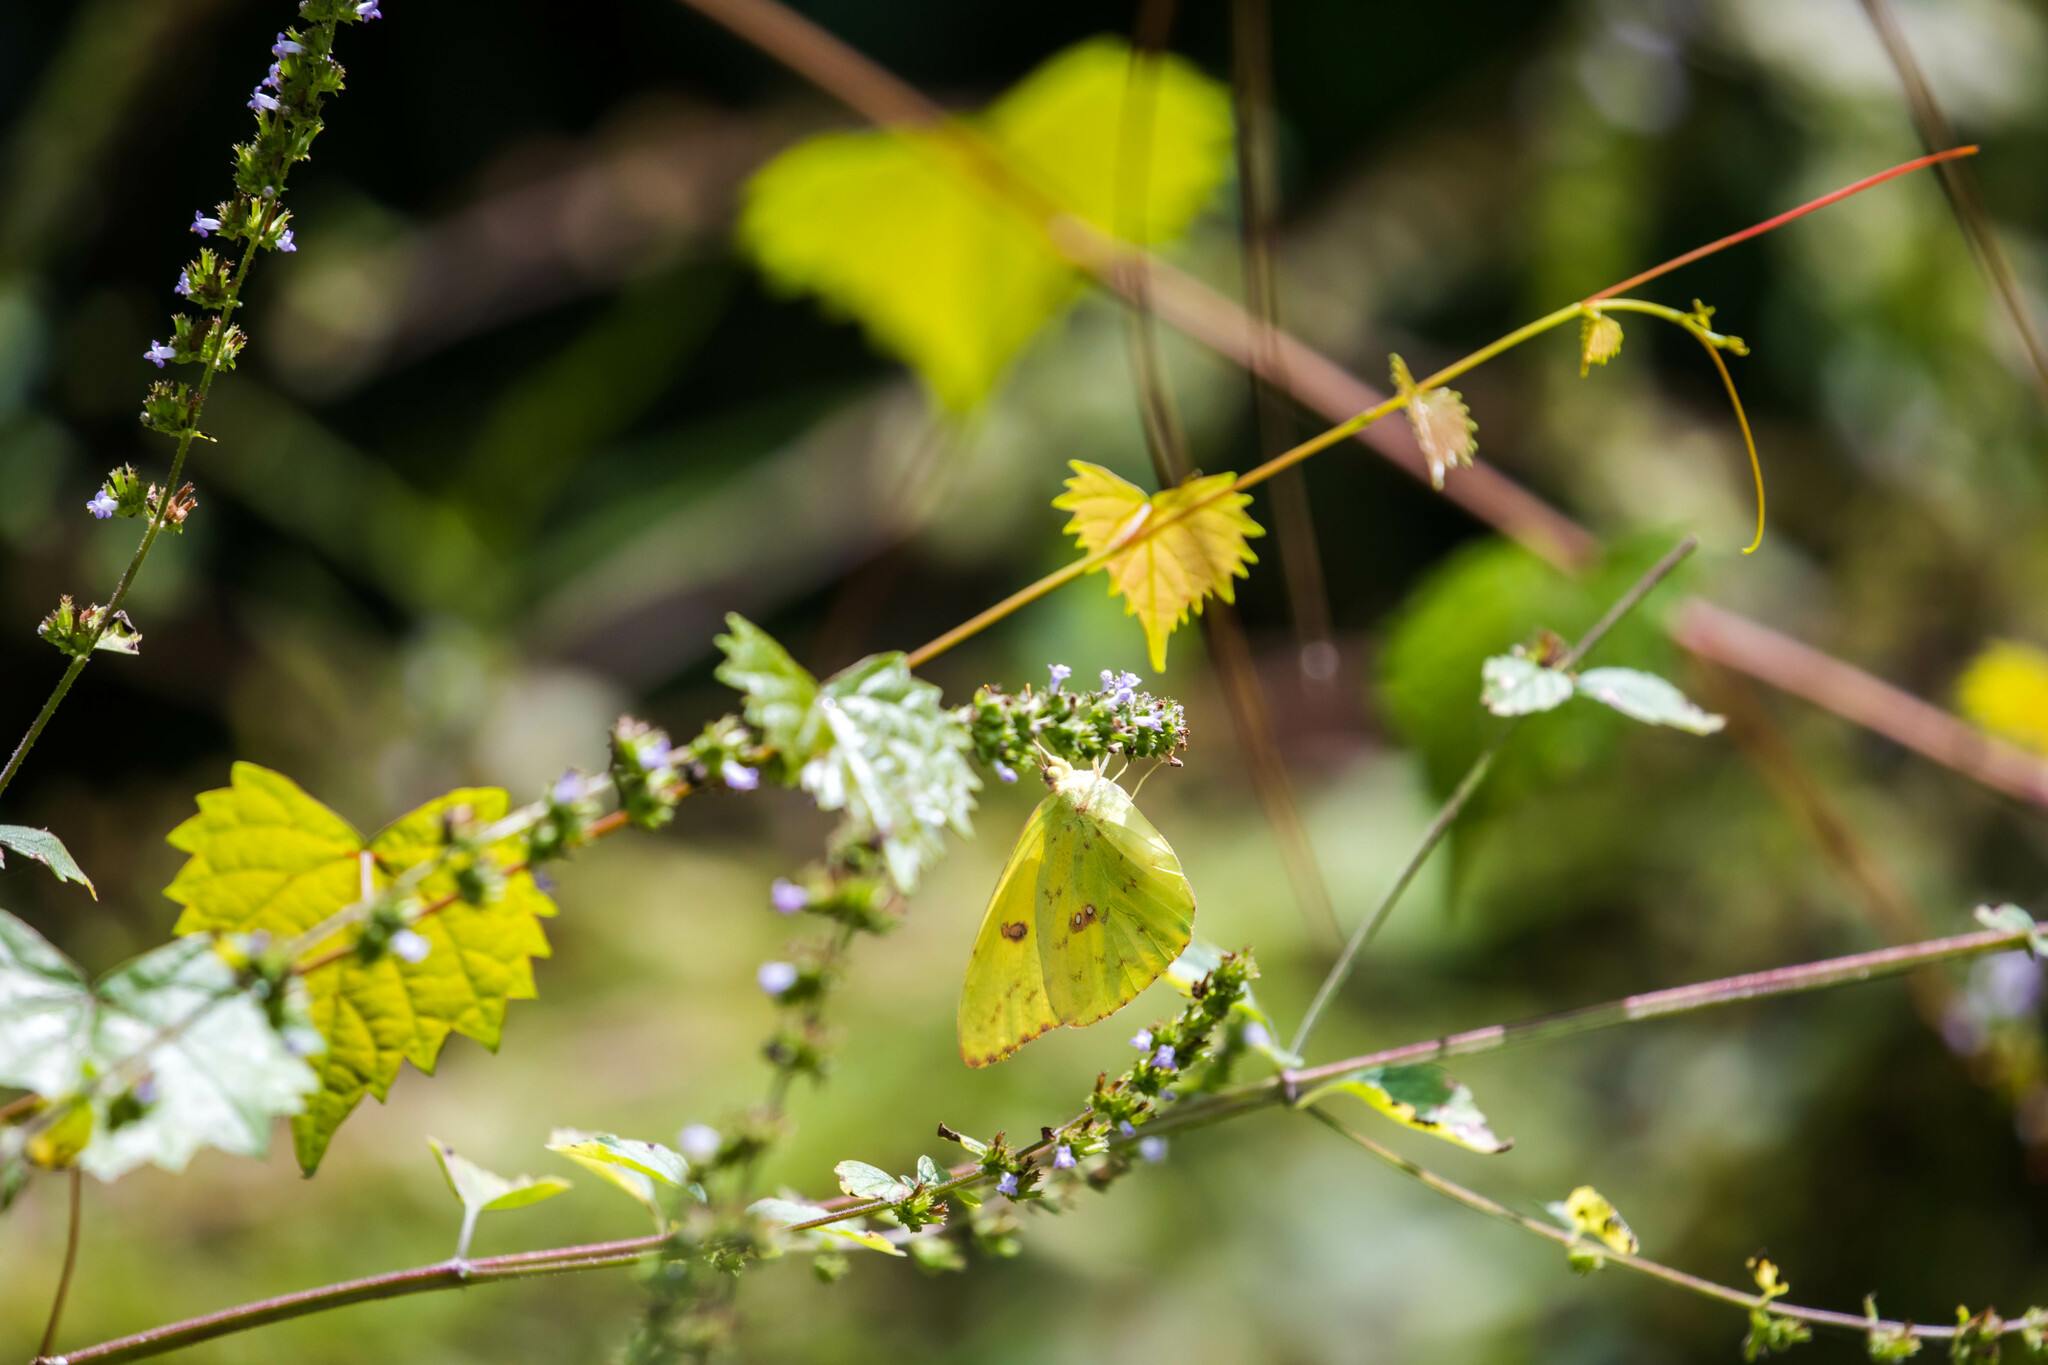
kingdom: Animalia
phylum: Arthropoda
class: Insecta
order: Lepidoptera
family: Pieridae
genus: Phoebis
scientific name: Phoebis sennae
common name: Cloudless sulphur
